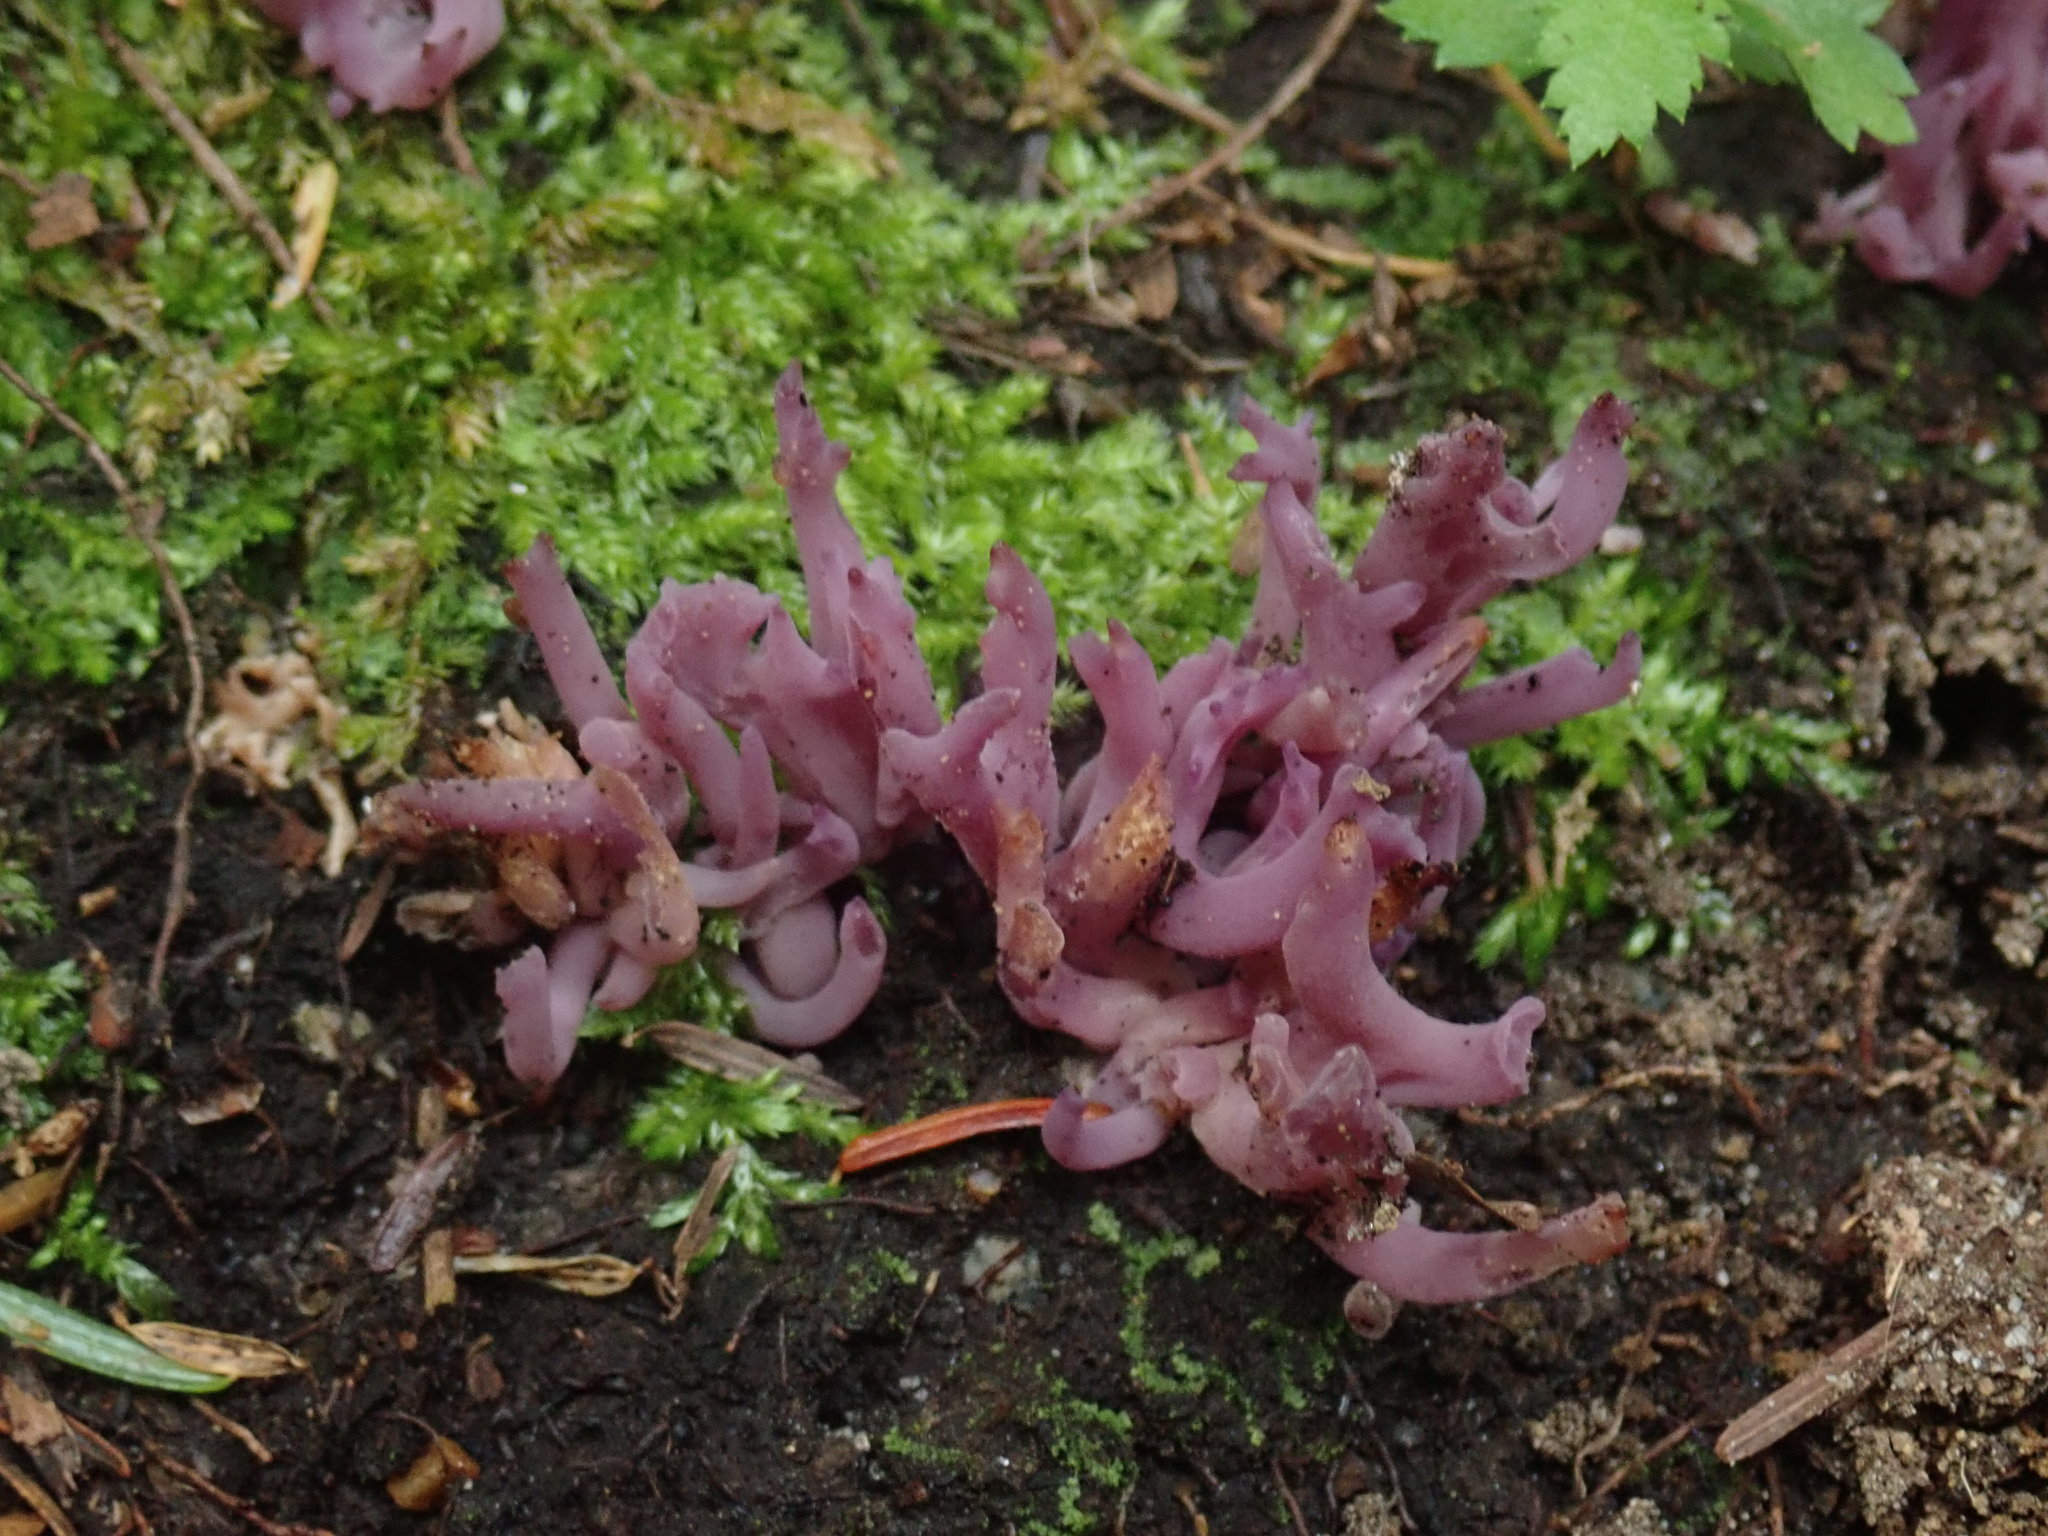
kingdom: Fungi
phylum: Basidiomycota
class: Agaricomycetes
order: Agaricales
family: Clavariaceae
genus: Clavaria
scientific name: Clavaria zollingeri
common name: Violet coral
